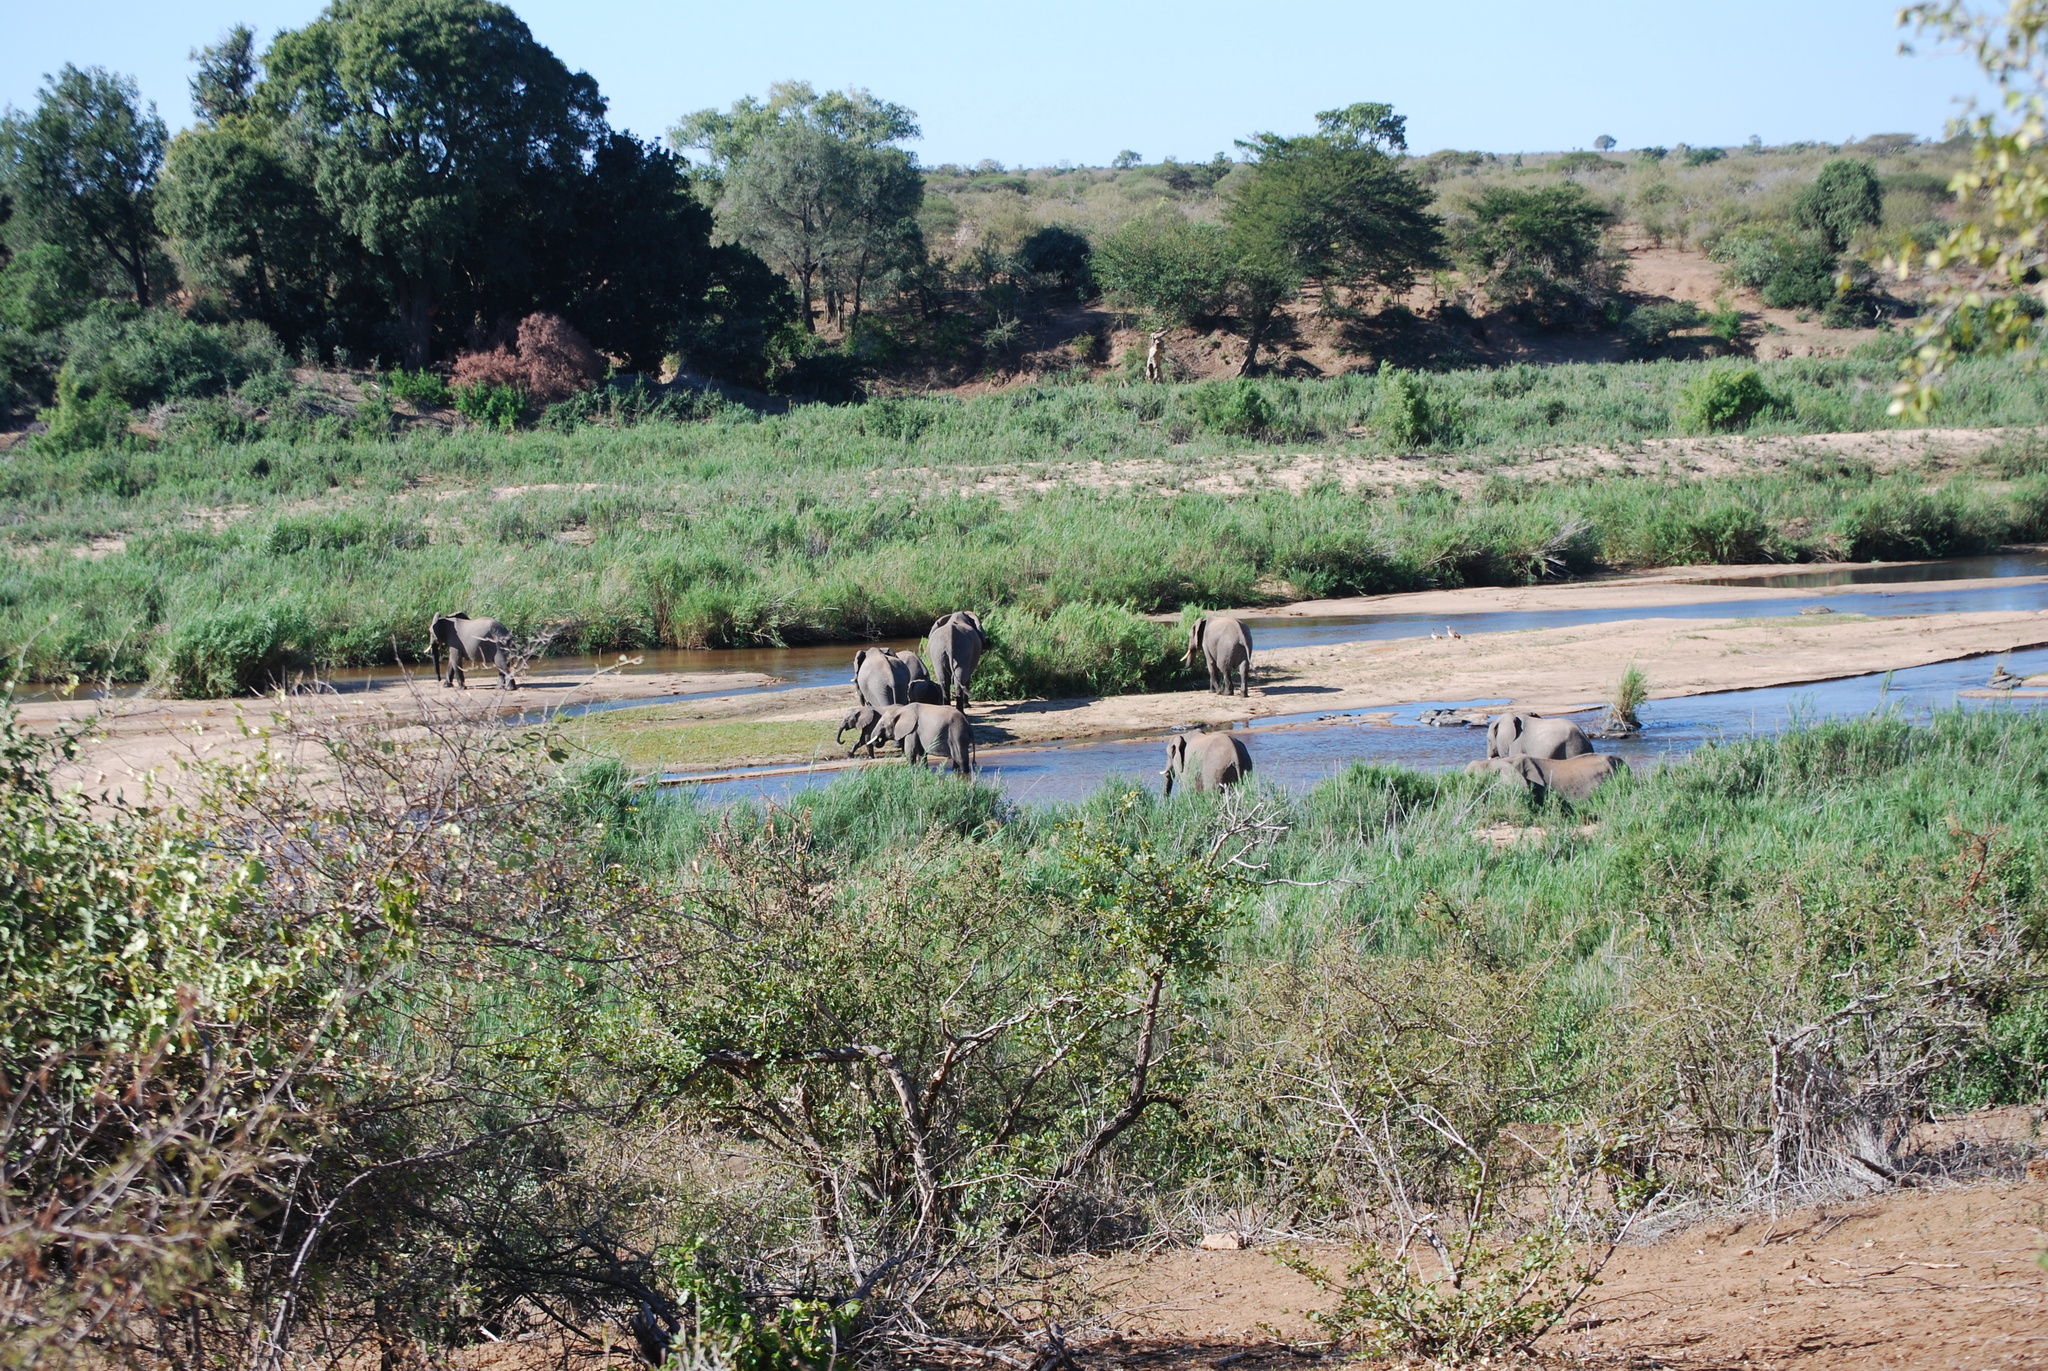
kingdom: Animalia
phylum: Chordata
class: Mammalia
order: Proboscidea
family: Elephantidae
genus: Loxodonta
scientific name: Loxodonta africana
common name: African elephant
